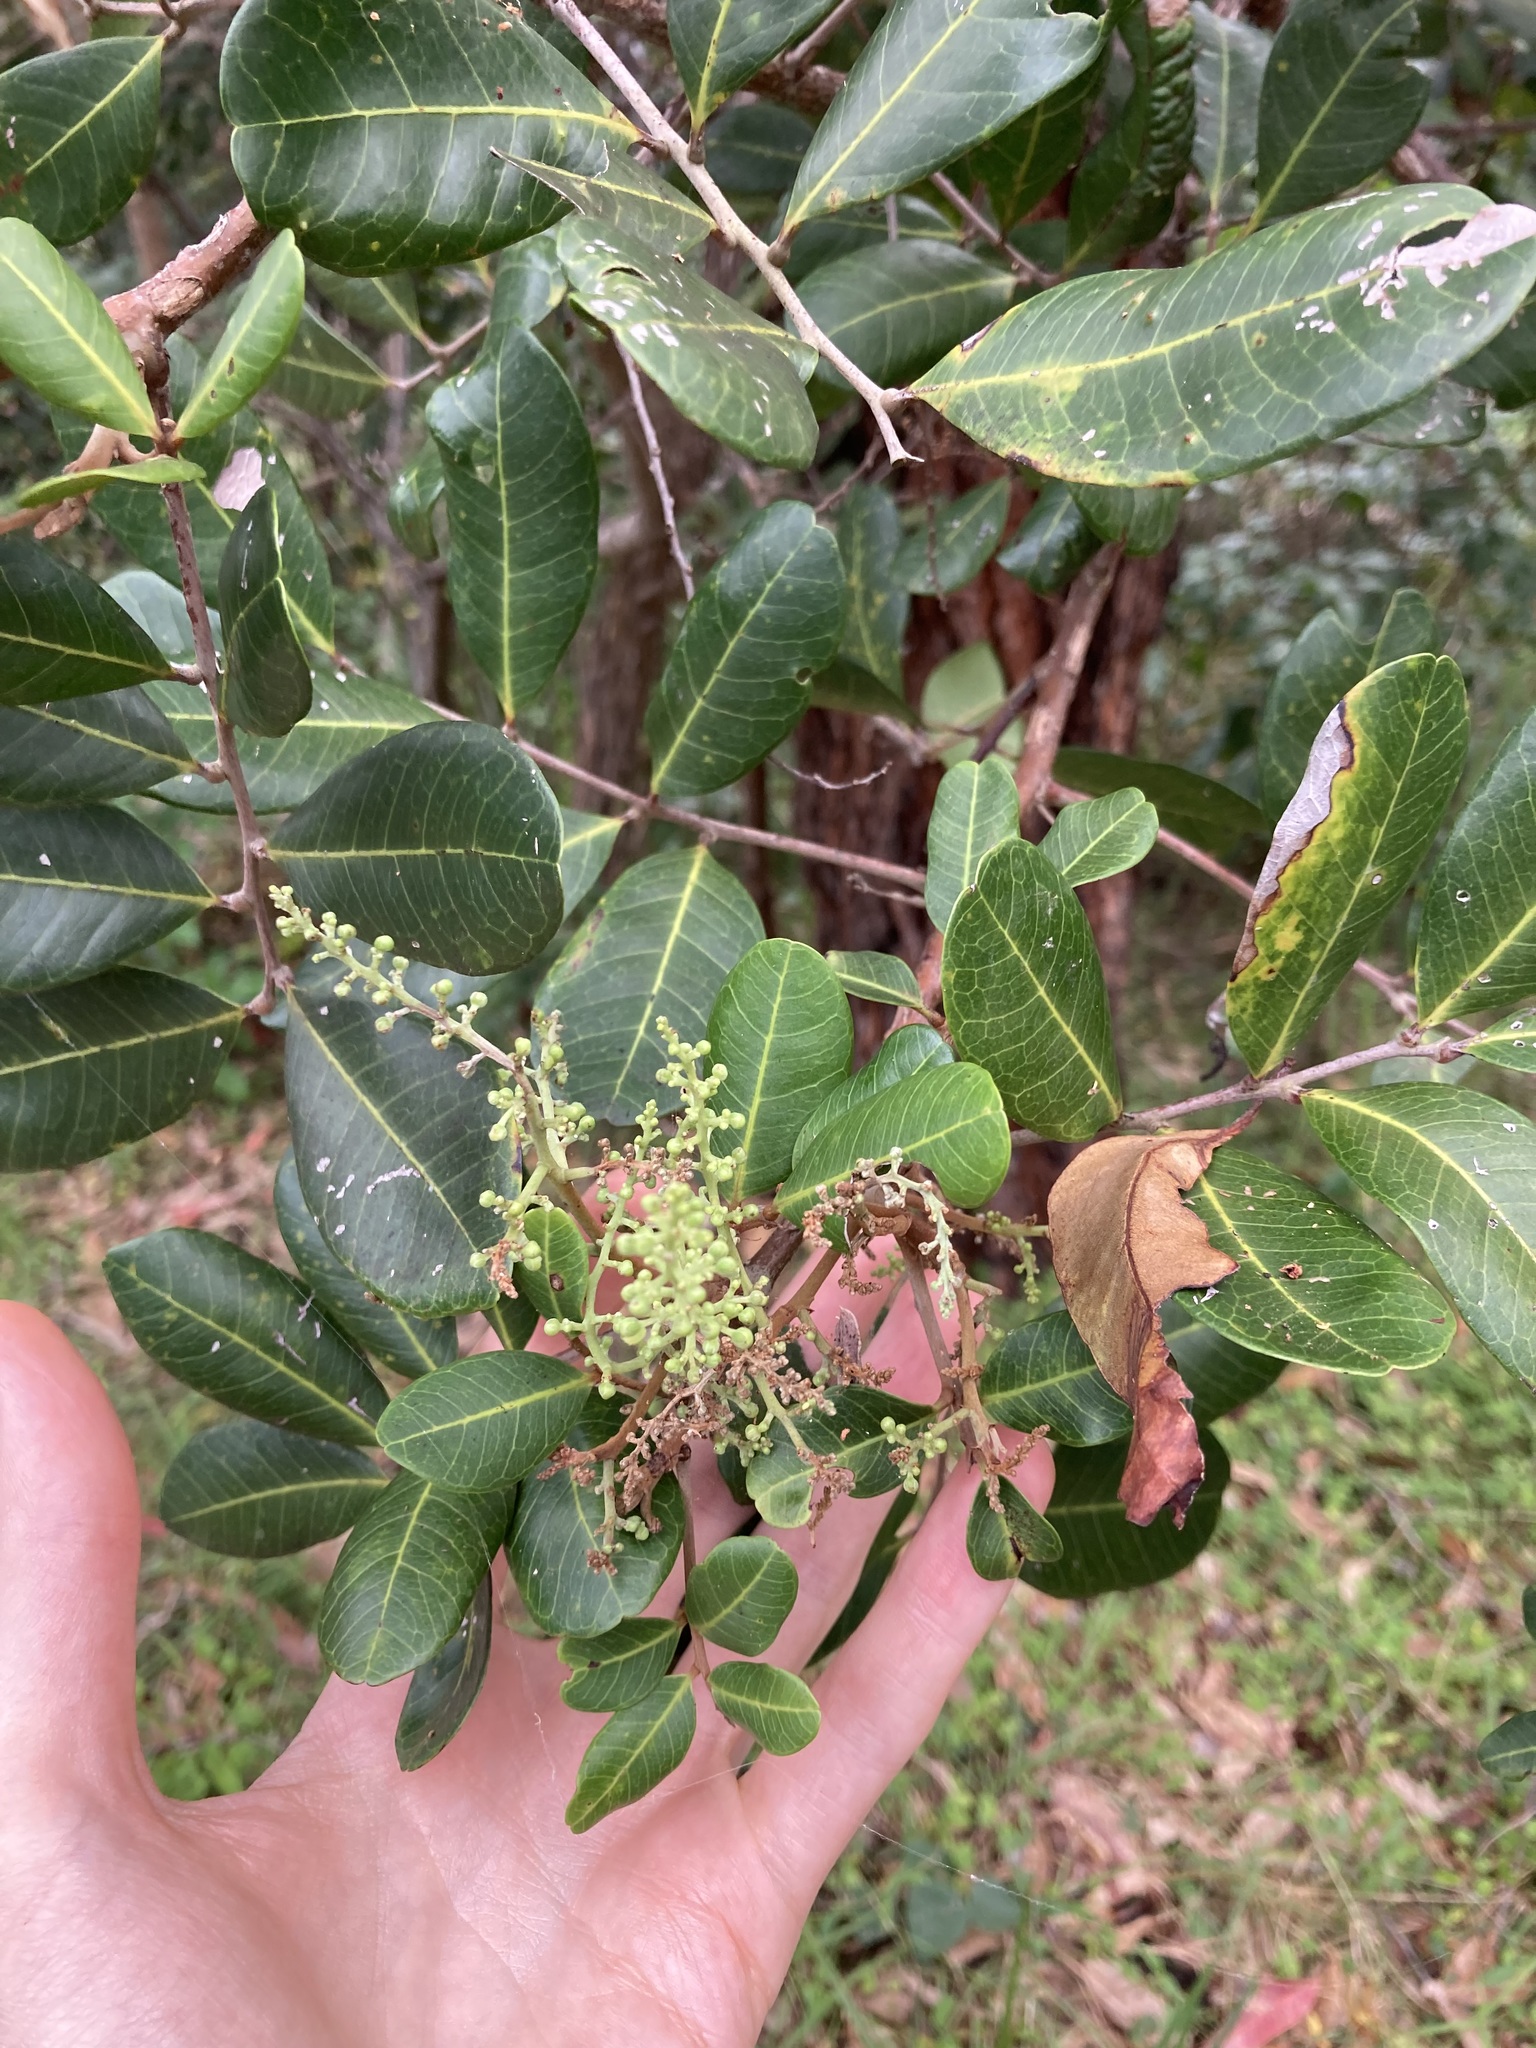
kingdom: Plantae
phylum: Tracheophyta
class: Magnoliopsida
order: Sapindales
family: Sapindaceae
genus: Cupaniopsis
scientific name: Cupaniopsis anacardioides
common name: Carrotwood
